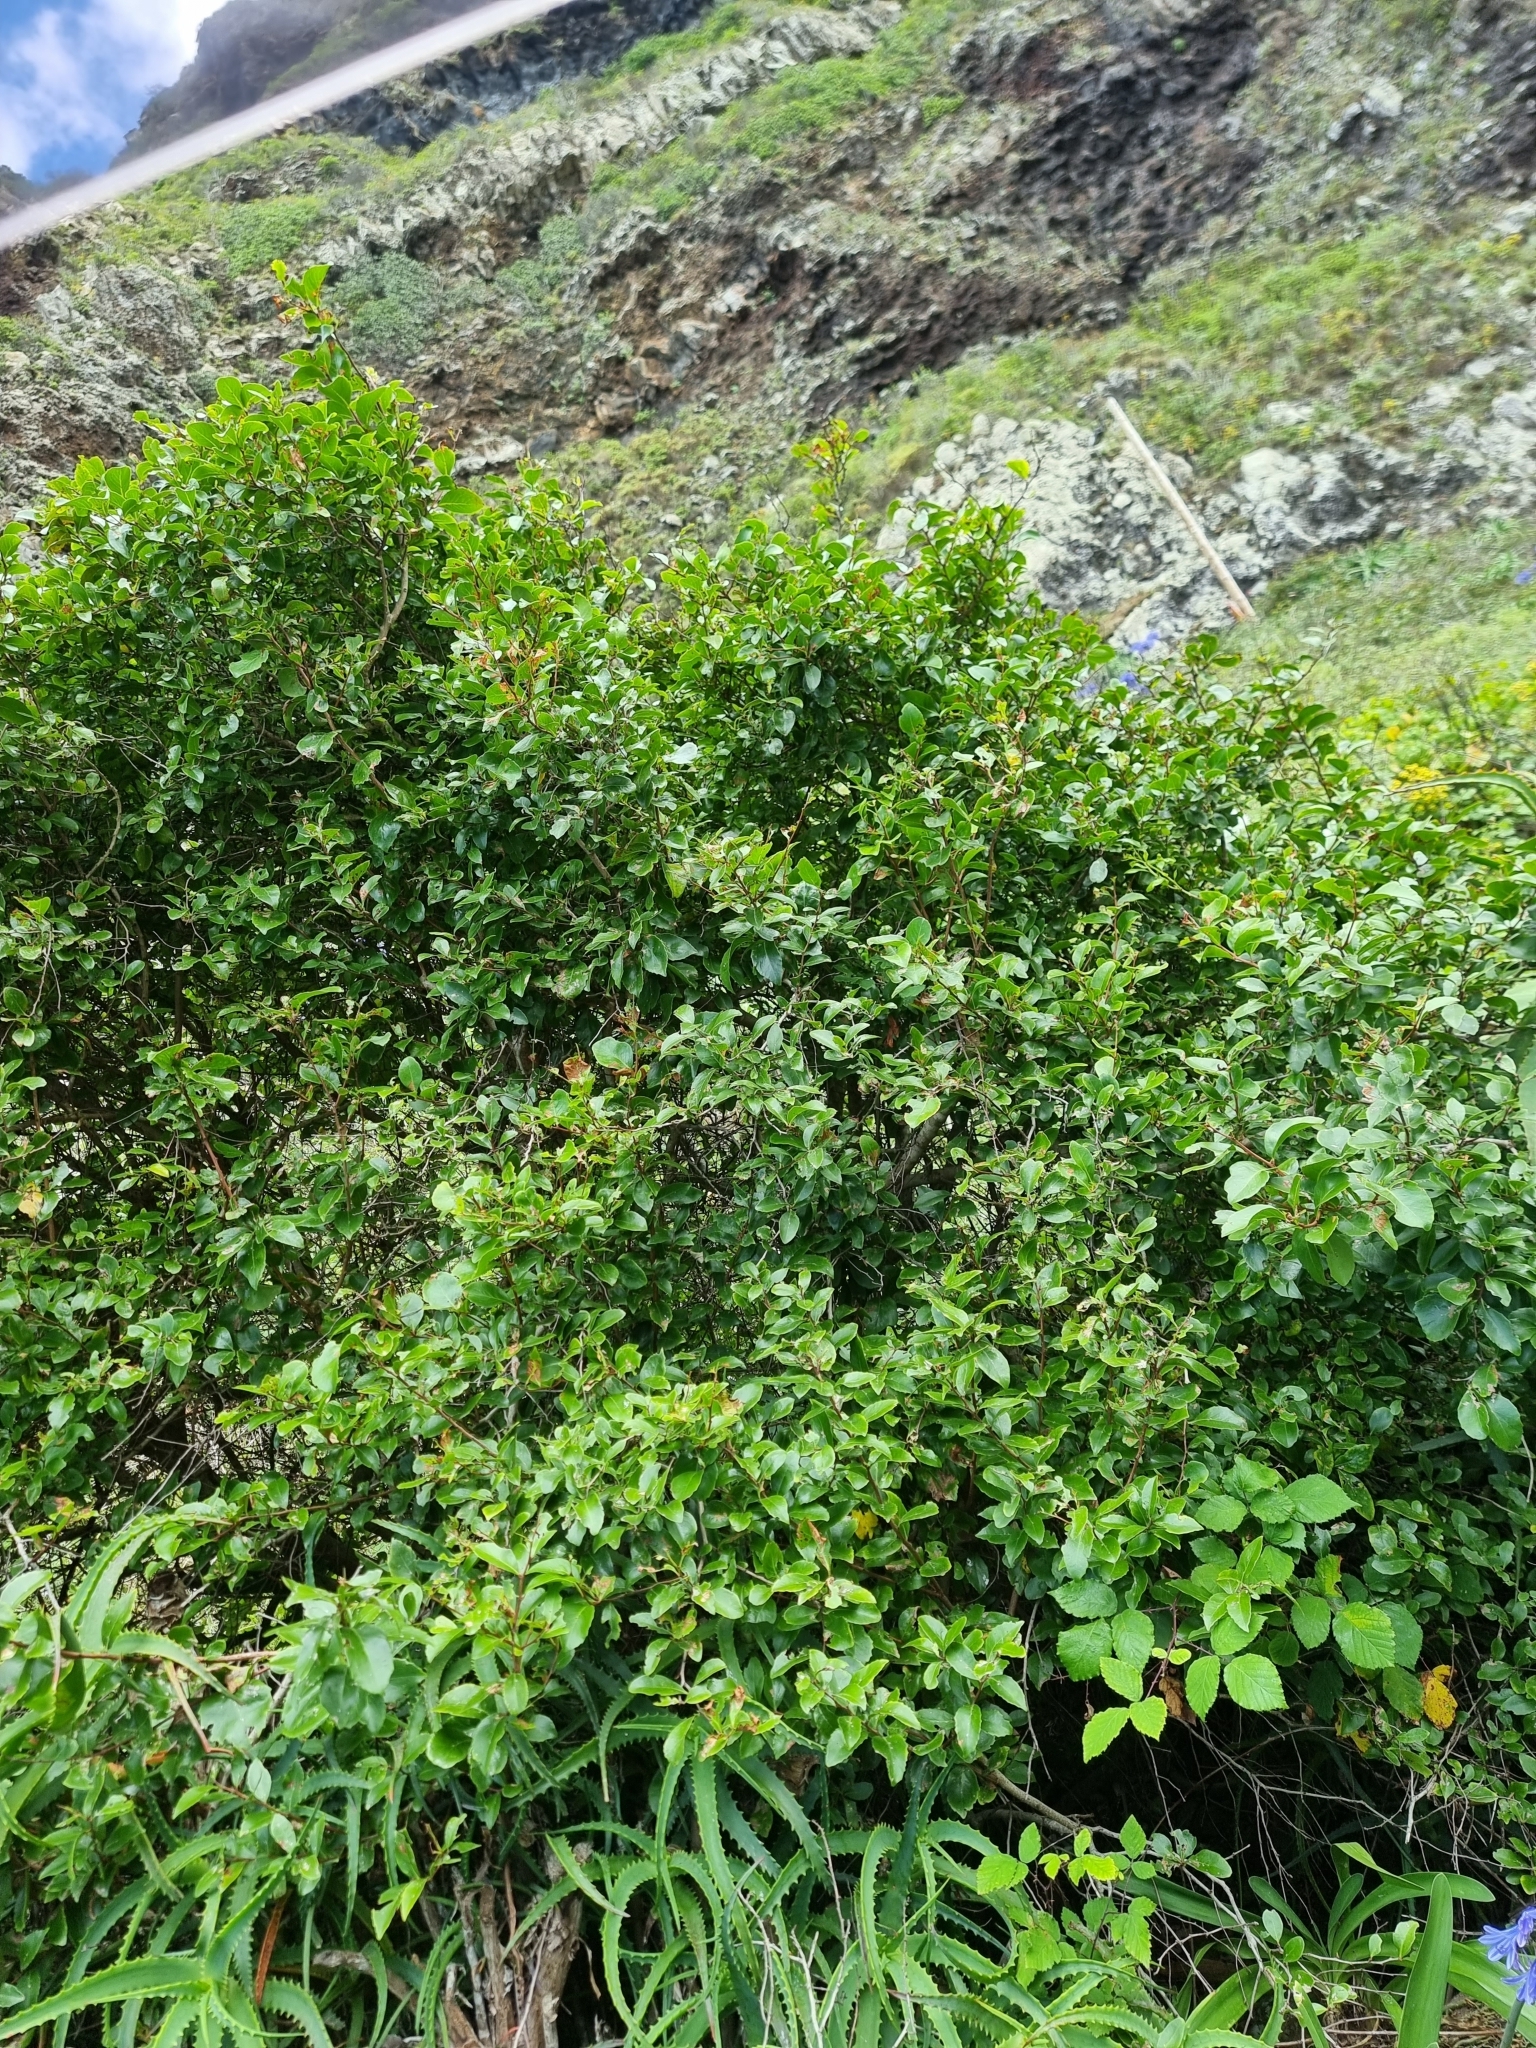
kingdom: Plantae
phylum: Tracheophyta
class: Magnoliopsida
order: Celastrales
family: Celastraceae
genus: Gymnosporia
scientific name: Gymnosporia dryandri
